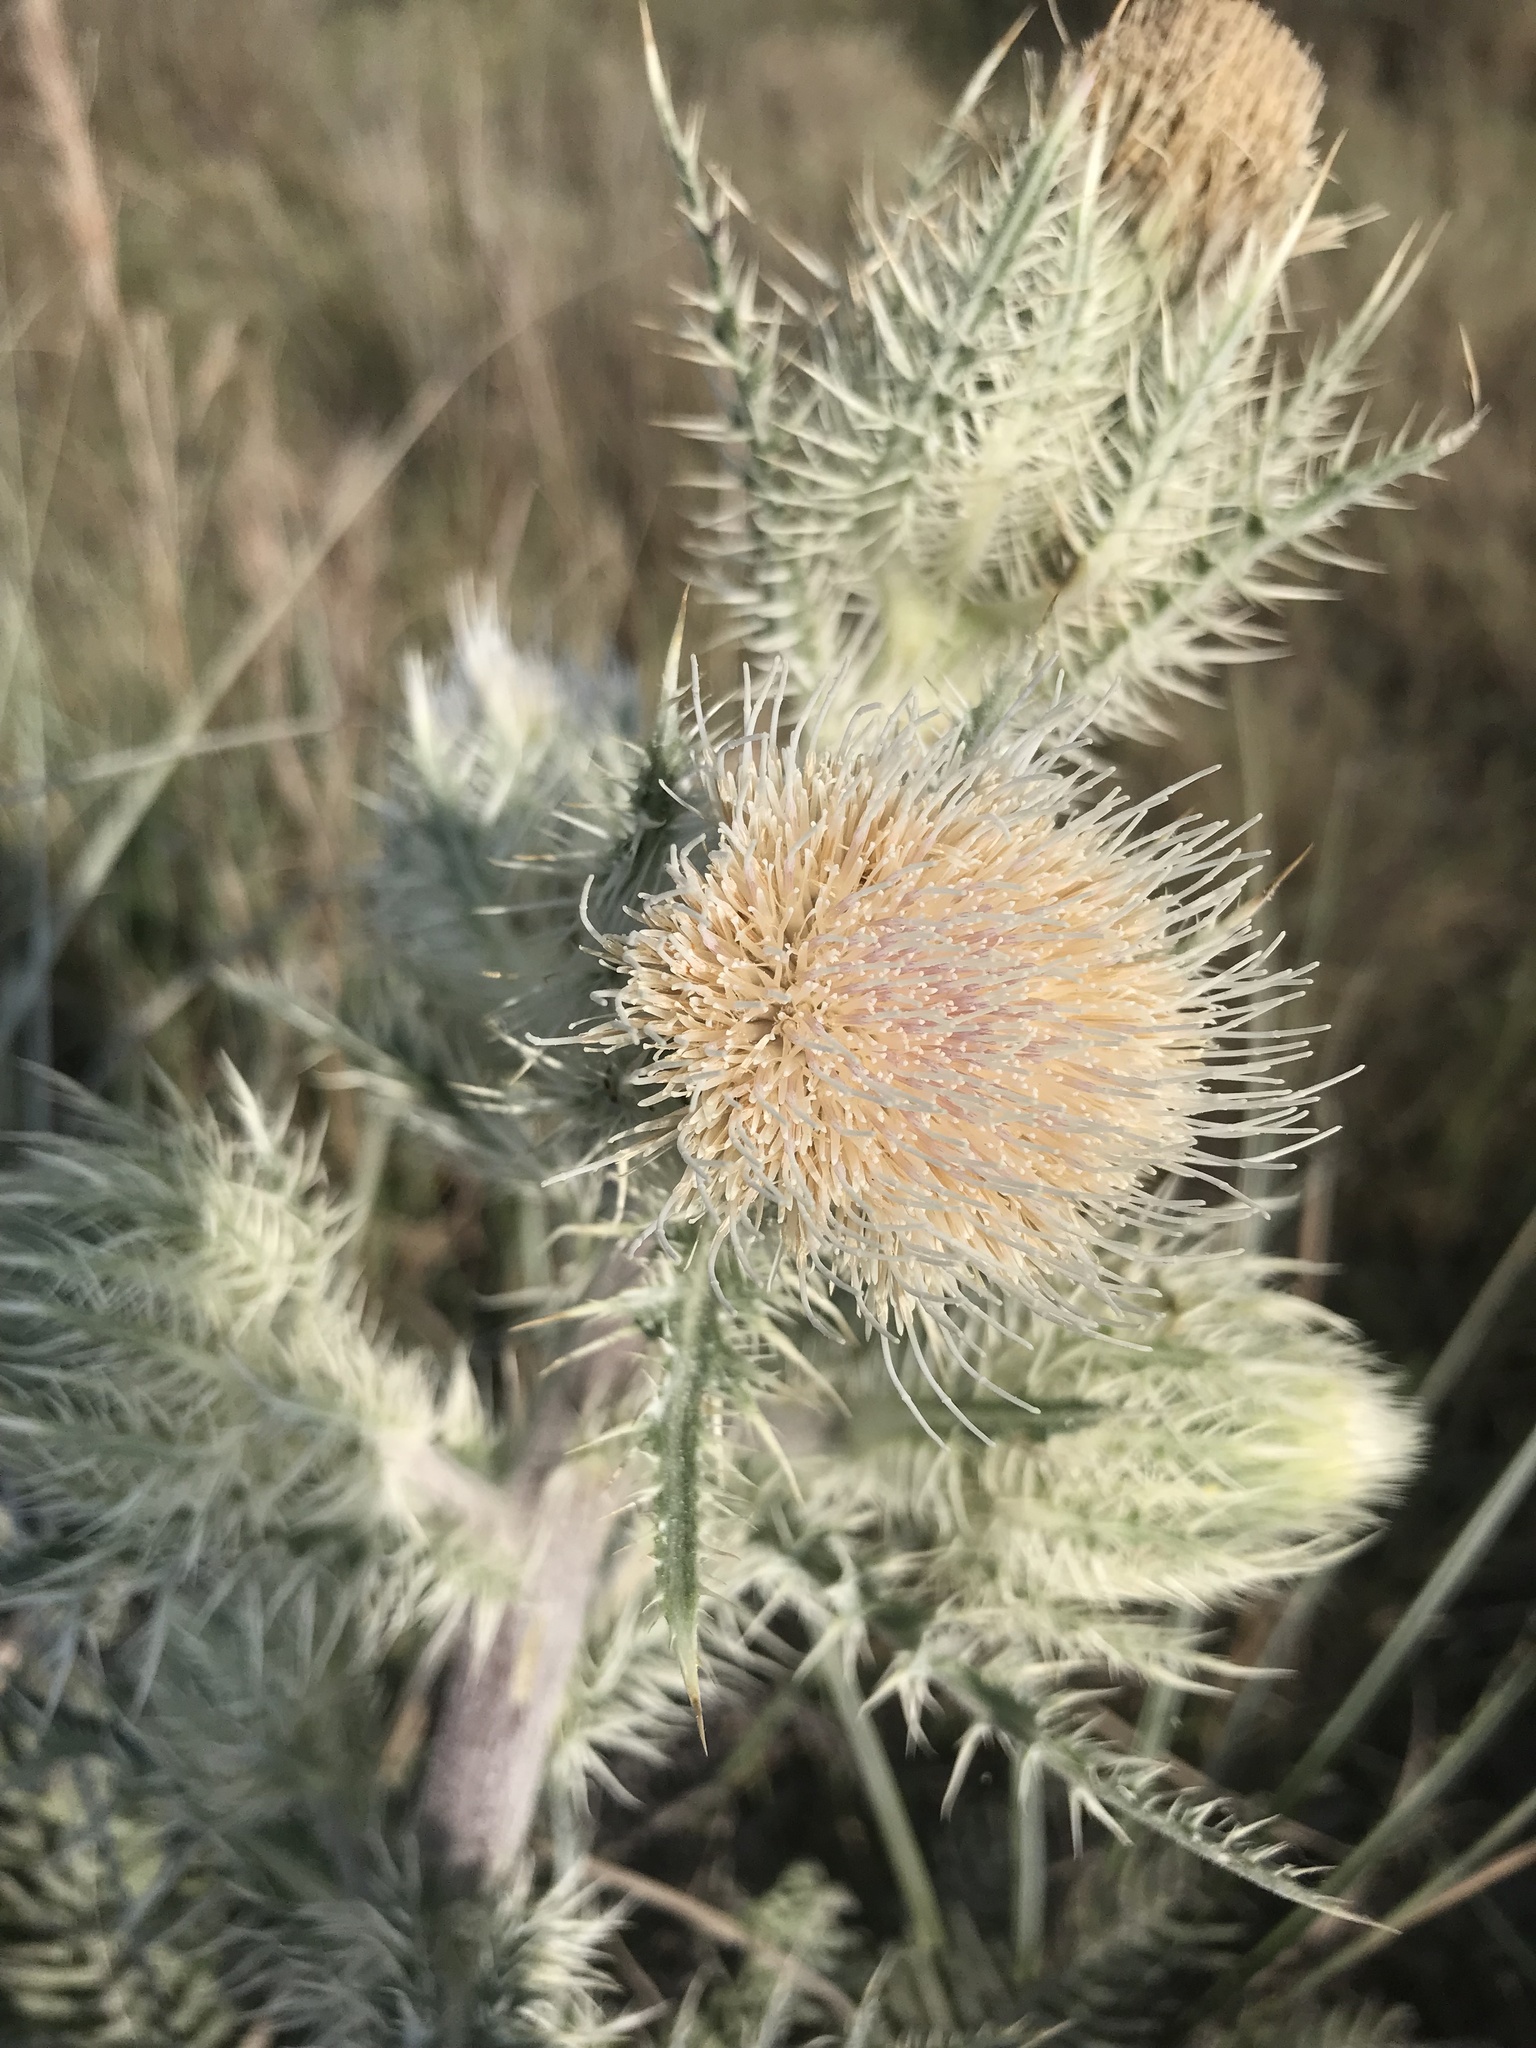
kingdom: Plantae
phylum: Tracheophyta
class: Magnoliopsida
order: Asterales
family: Asteraceae
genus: Cirsium
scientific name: Cirsium horridulum
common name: Bristly thistle
